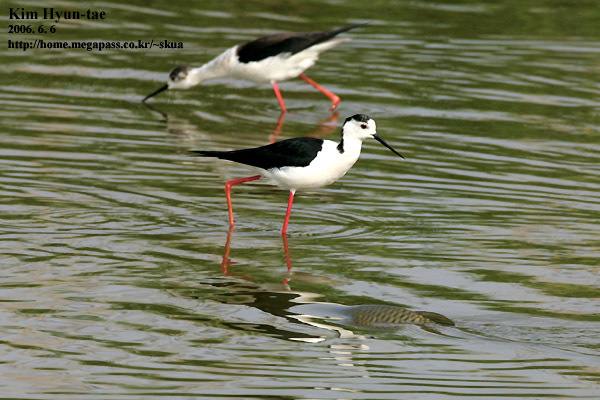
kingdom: Animalia
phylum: Chordata
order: Cypriniformes
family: Cyprinidae
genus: Cyprinus
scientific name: Cyprinus rubrofuscus
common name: Koi
